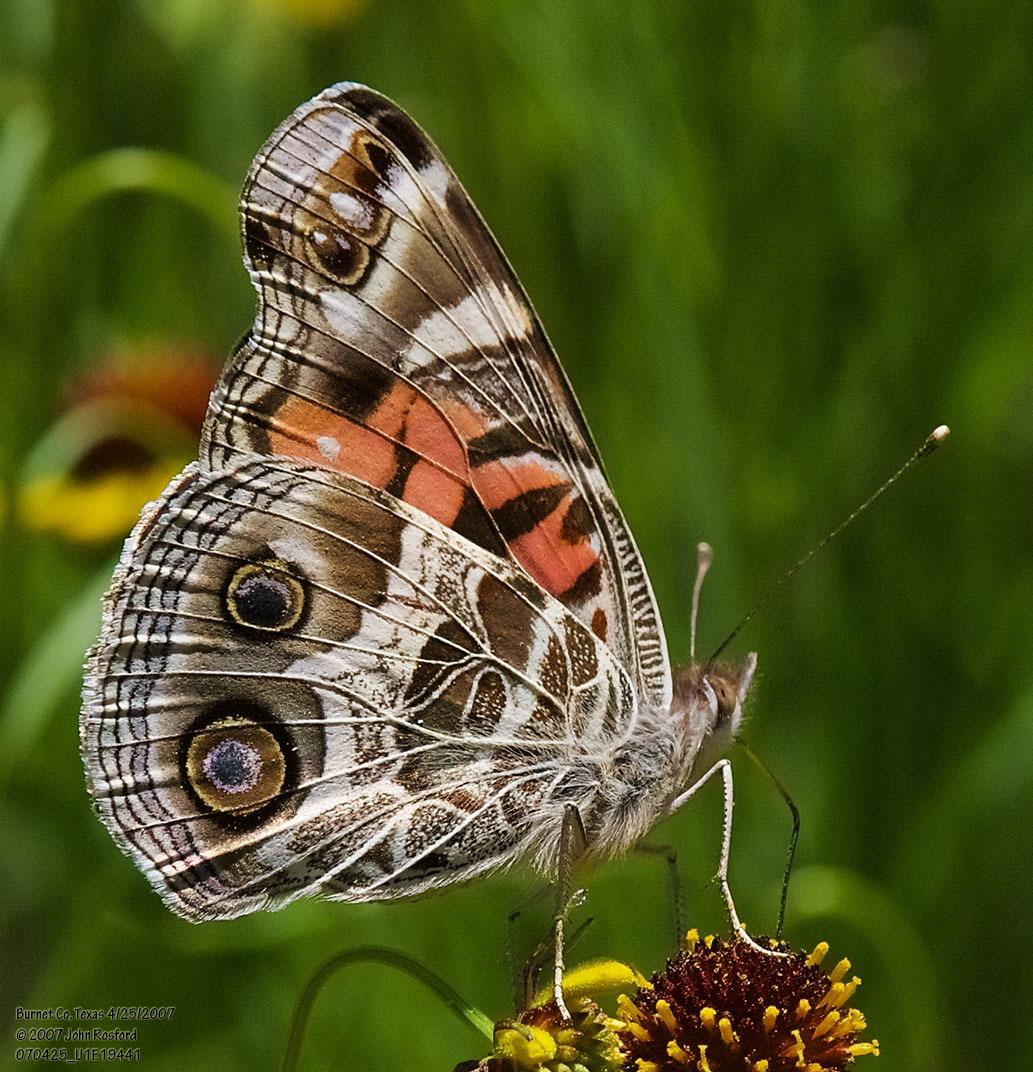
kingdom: Animalia
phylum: Arthropoda
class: Insecta
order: Lepidoptera
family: Nymphalidae
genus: Vanessa
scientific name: Vanessa virginiensis
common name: American lady
